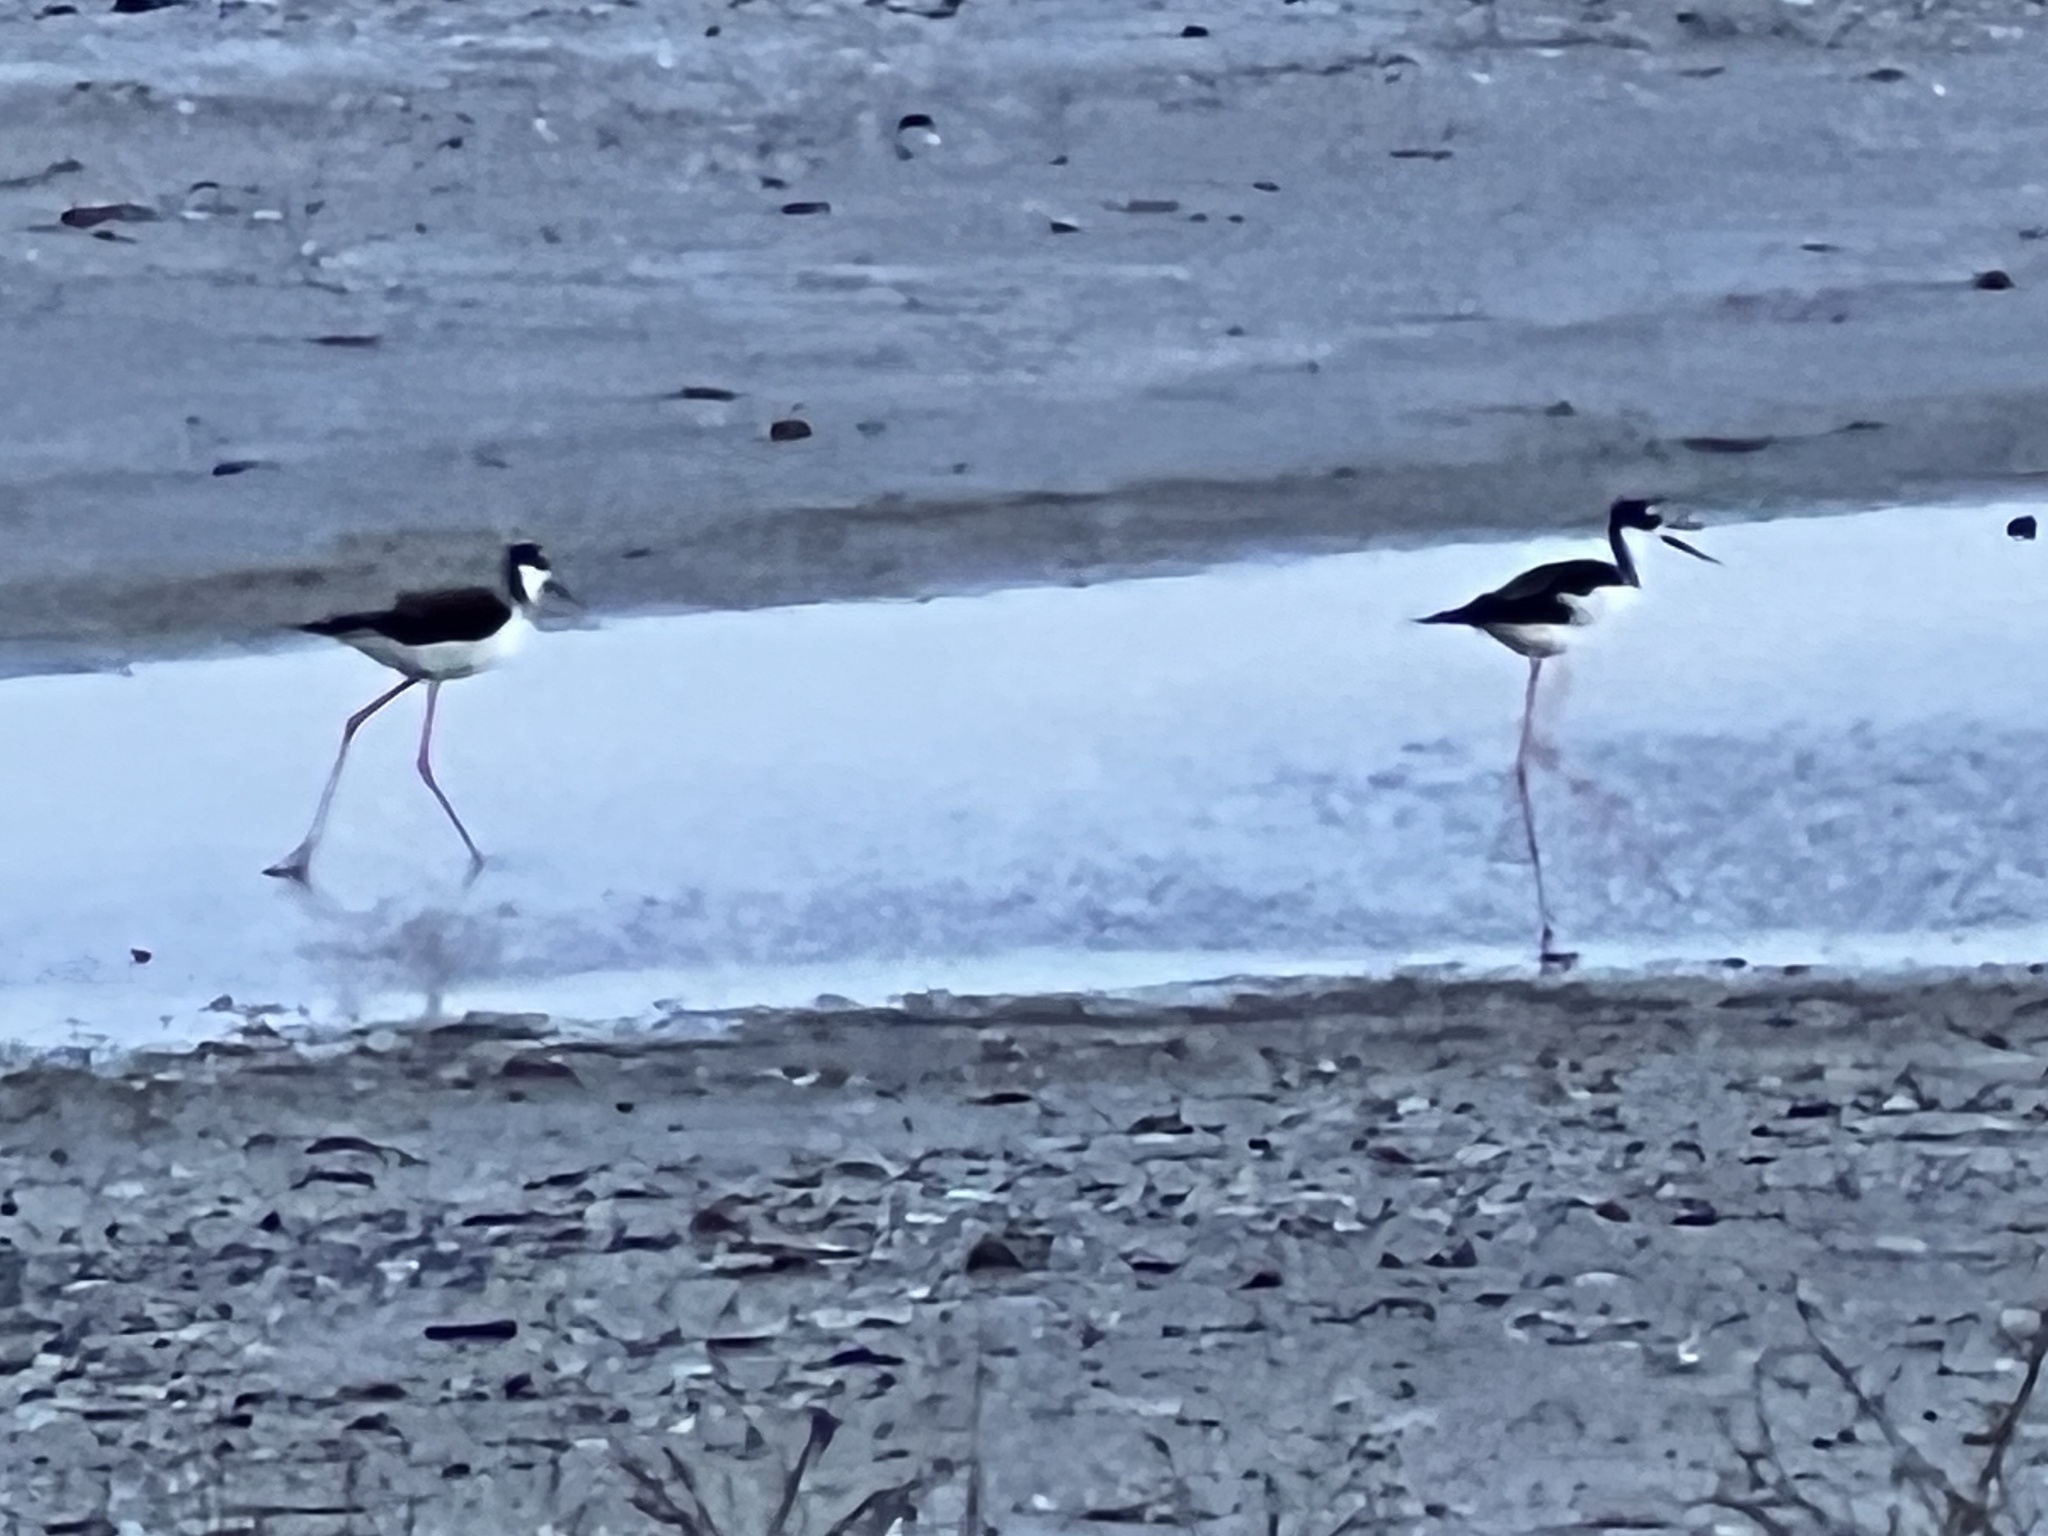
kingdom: Animalia
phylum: Chordata
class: Aves
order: Charadriiformes
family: Recurvirostridae
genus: Himantopus
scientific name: Himantopus mexicanus
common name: Black-necked stilt
